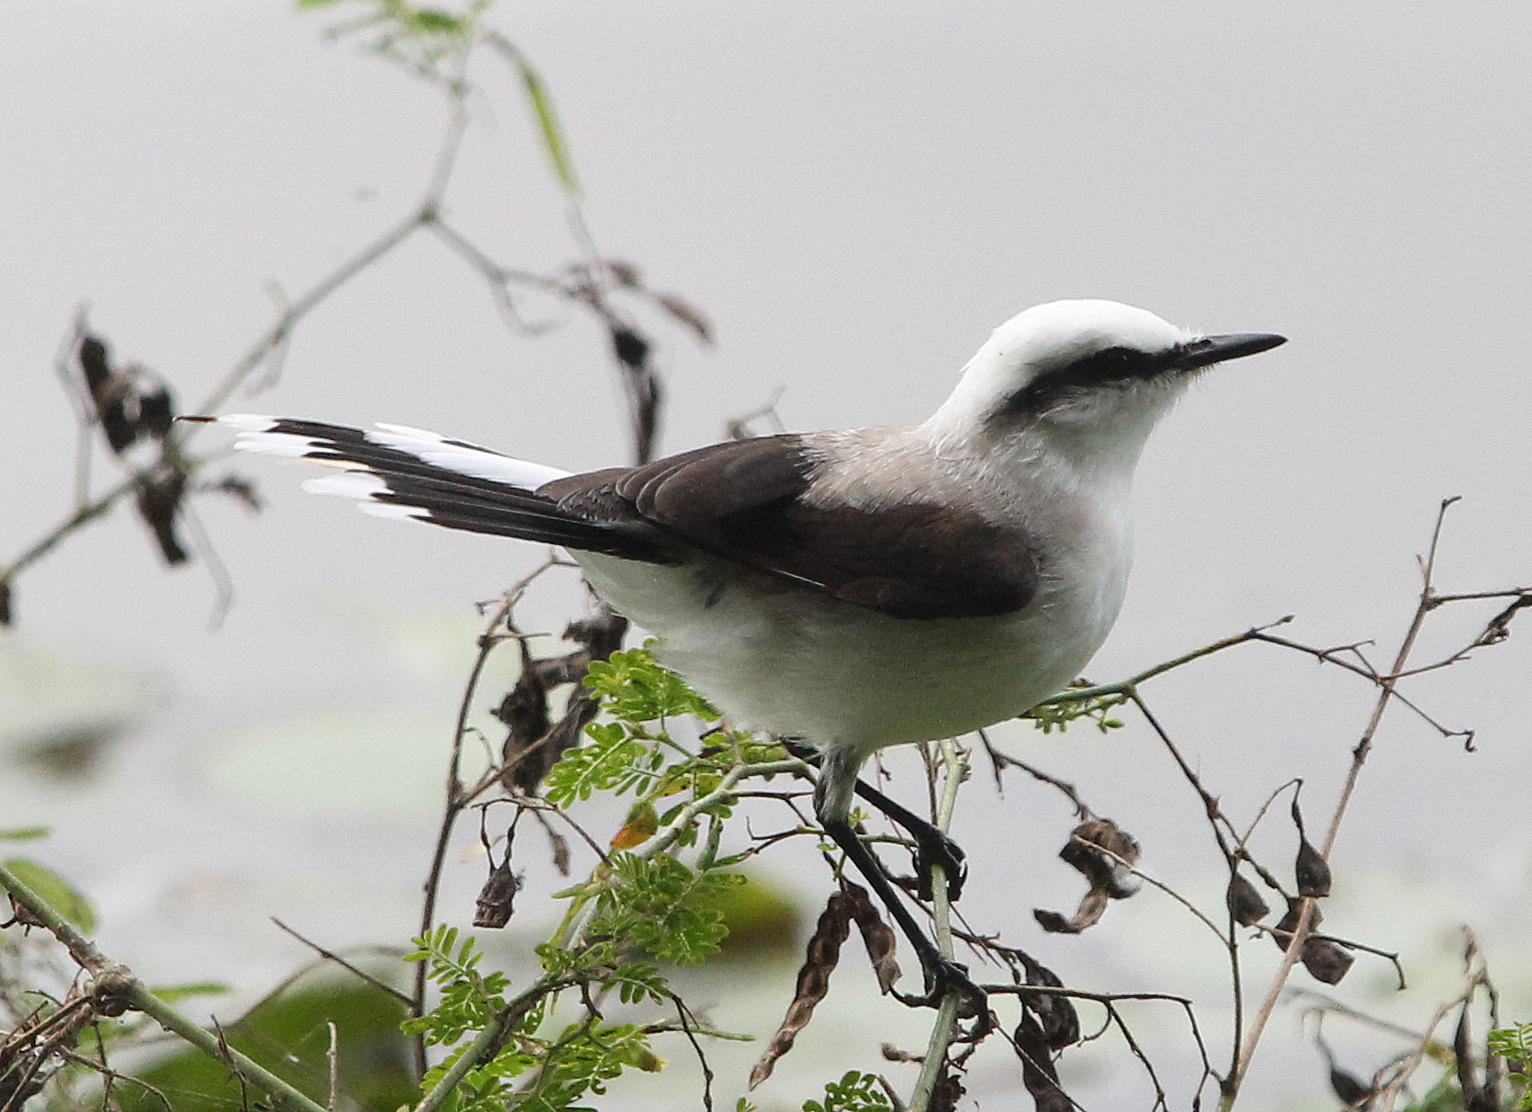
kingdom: Animalia
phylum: Chordata
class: Aves
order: Passeriformes
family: Tyrannidae
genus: Fluvicola
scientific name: Fluvicola nengeta
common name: Masked water tyrant
